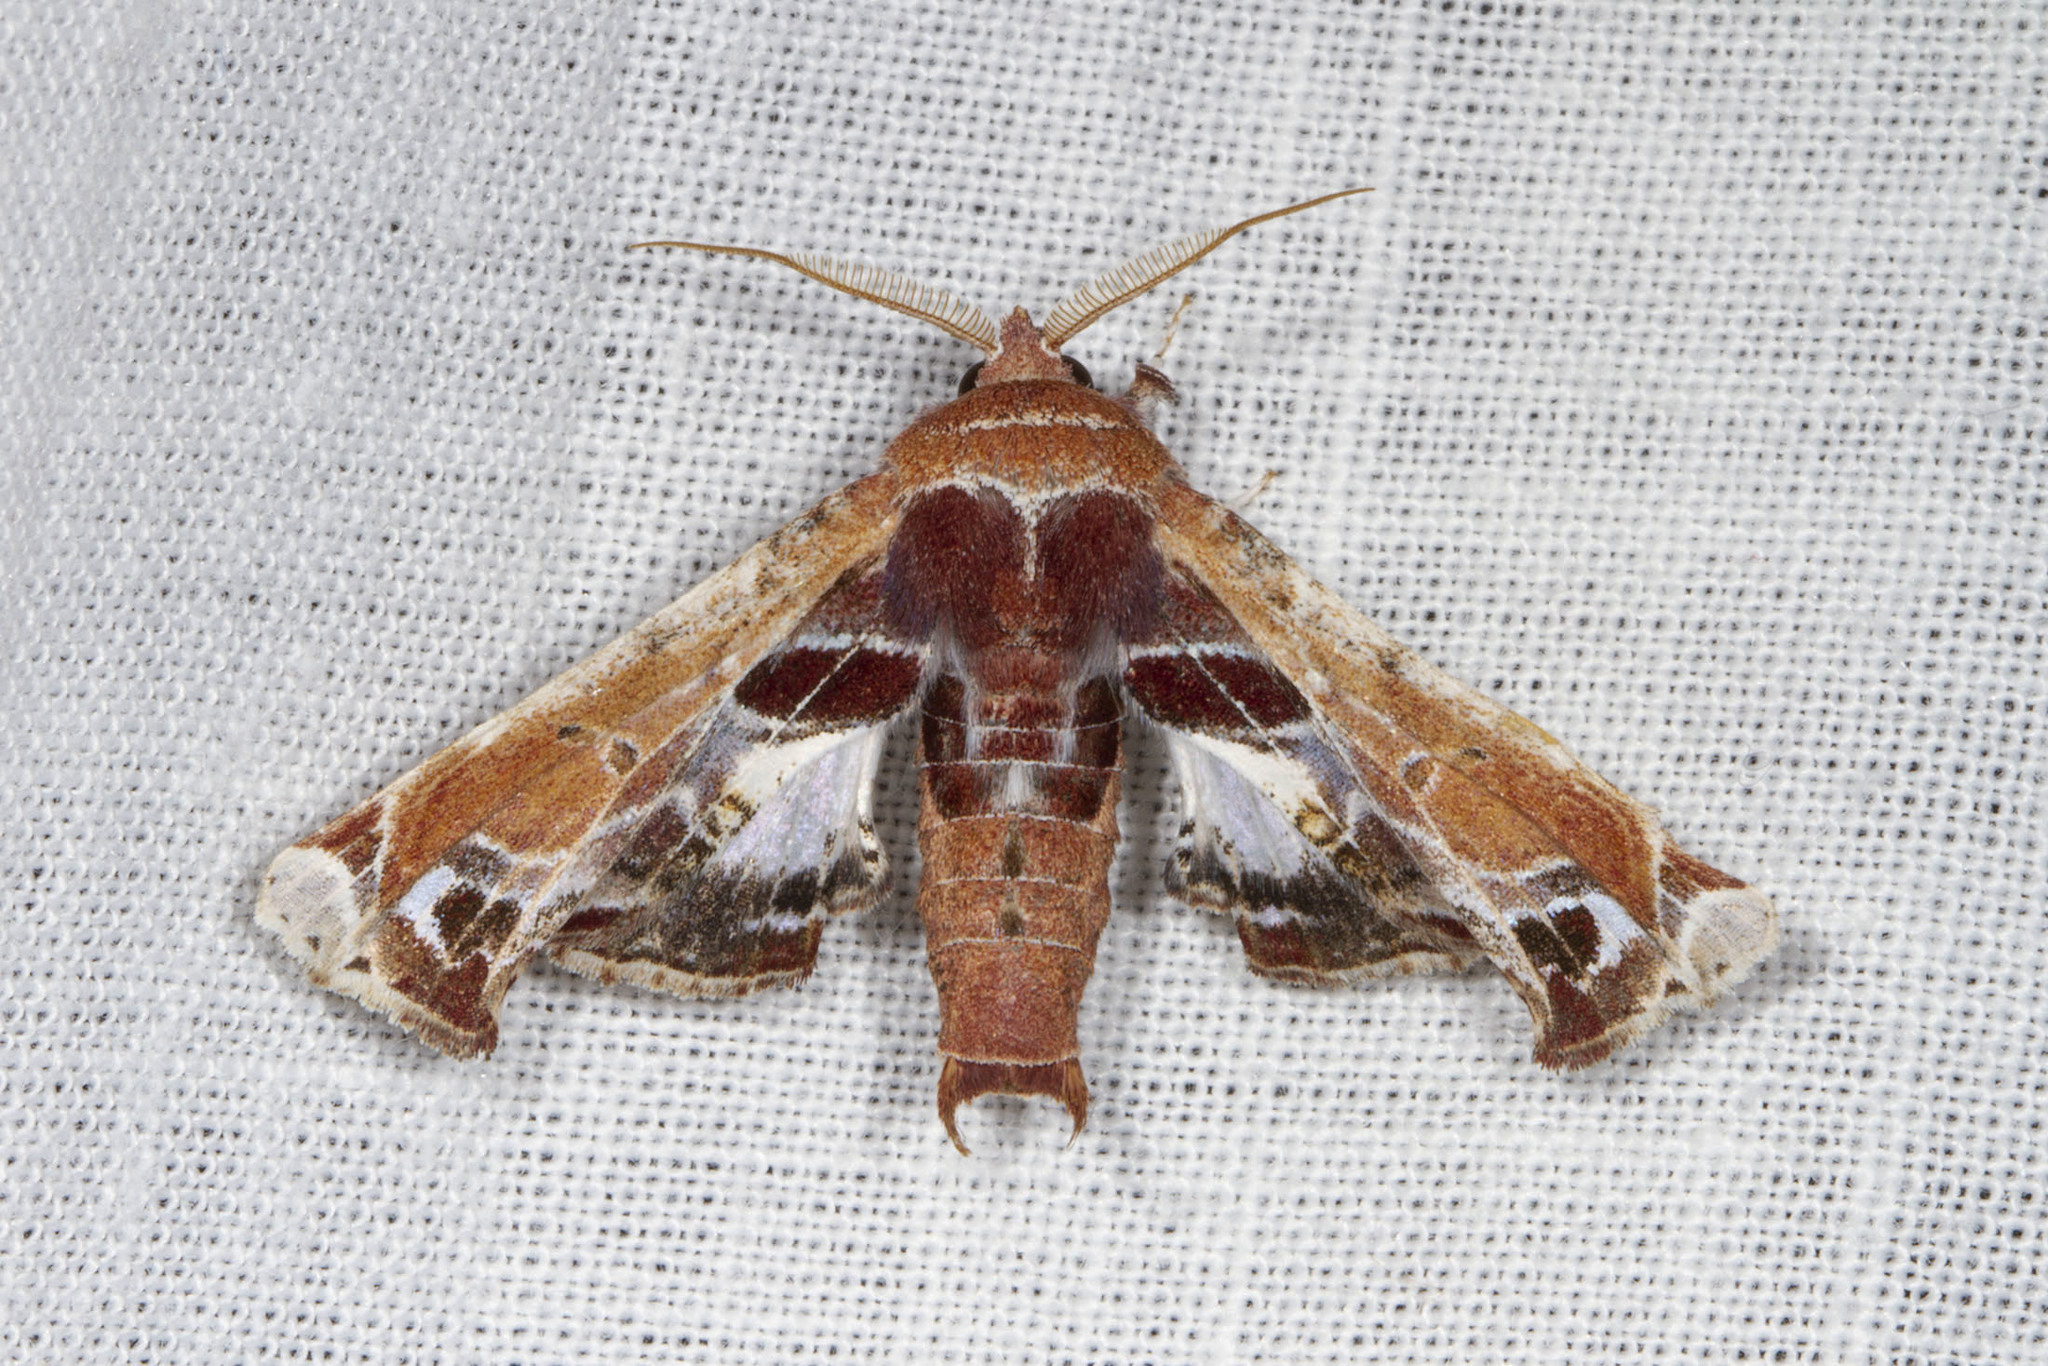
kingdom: Animalia
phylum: Arthropoda
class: Insecta
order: Lepidoptera
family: Euteliidae
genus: Eutelia
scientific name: Eutelia pulcherrimus
